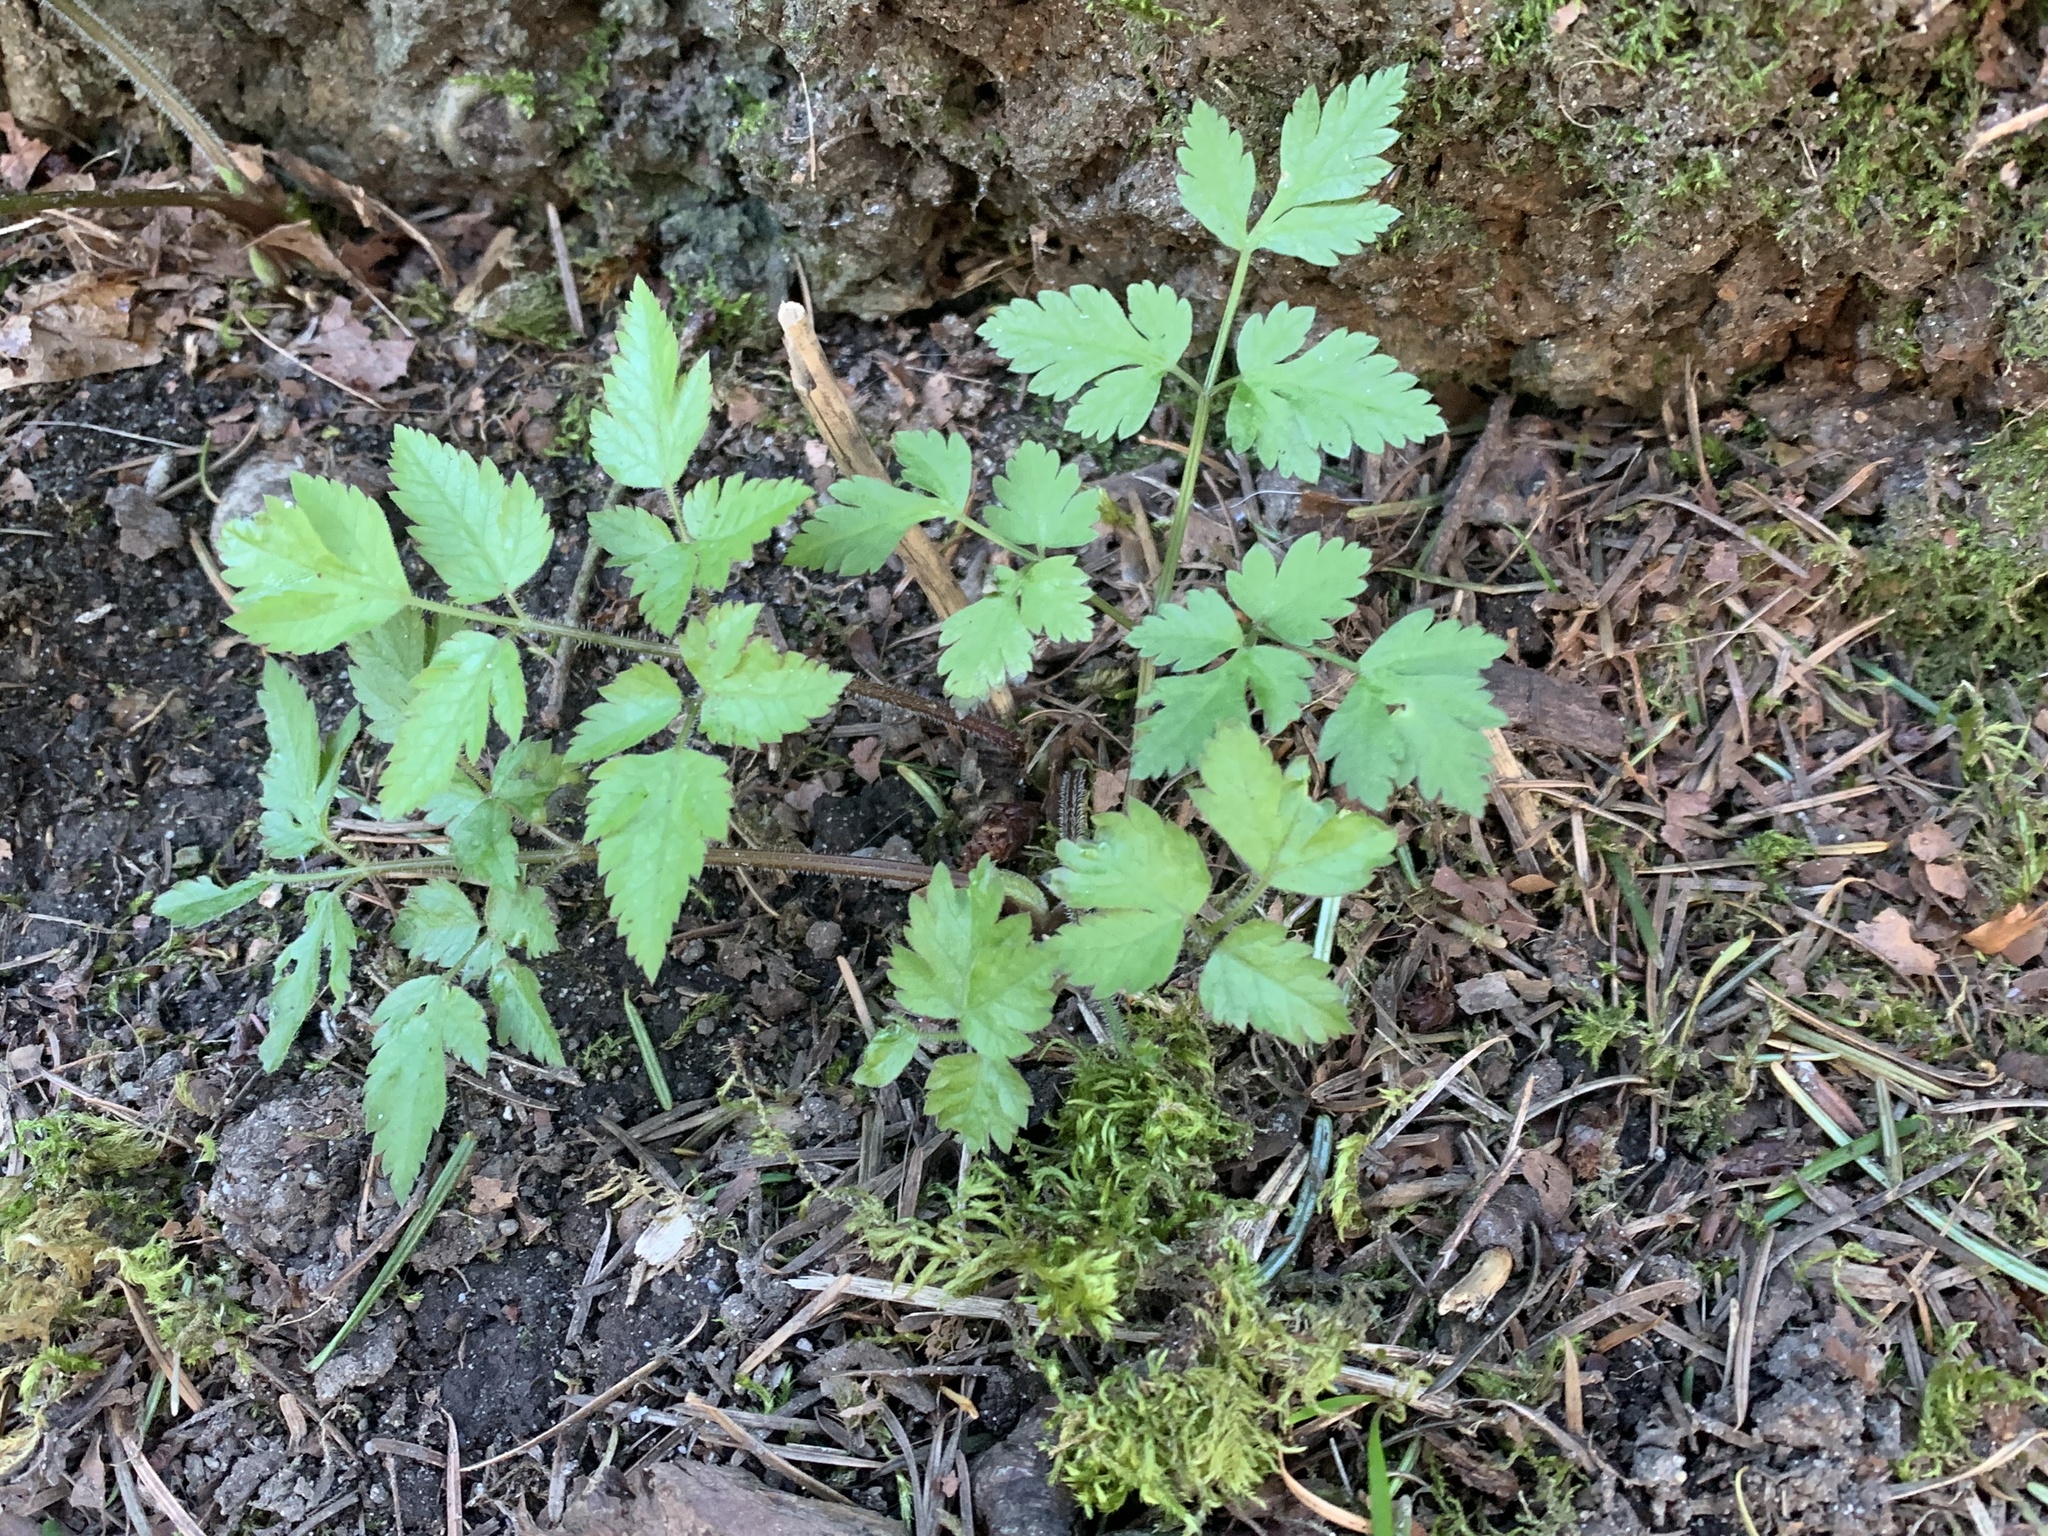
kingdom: Plantae
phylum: Tracheophyta
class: Magnoliopsida
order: Apiales
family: Apiaceae
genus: Osmorhiza
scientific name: Osmorhiza berteroi
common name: Mountain sweet cicely
